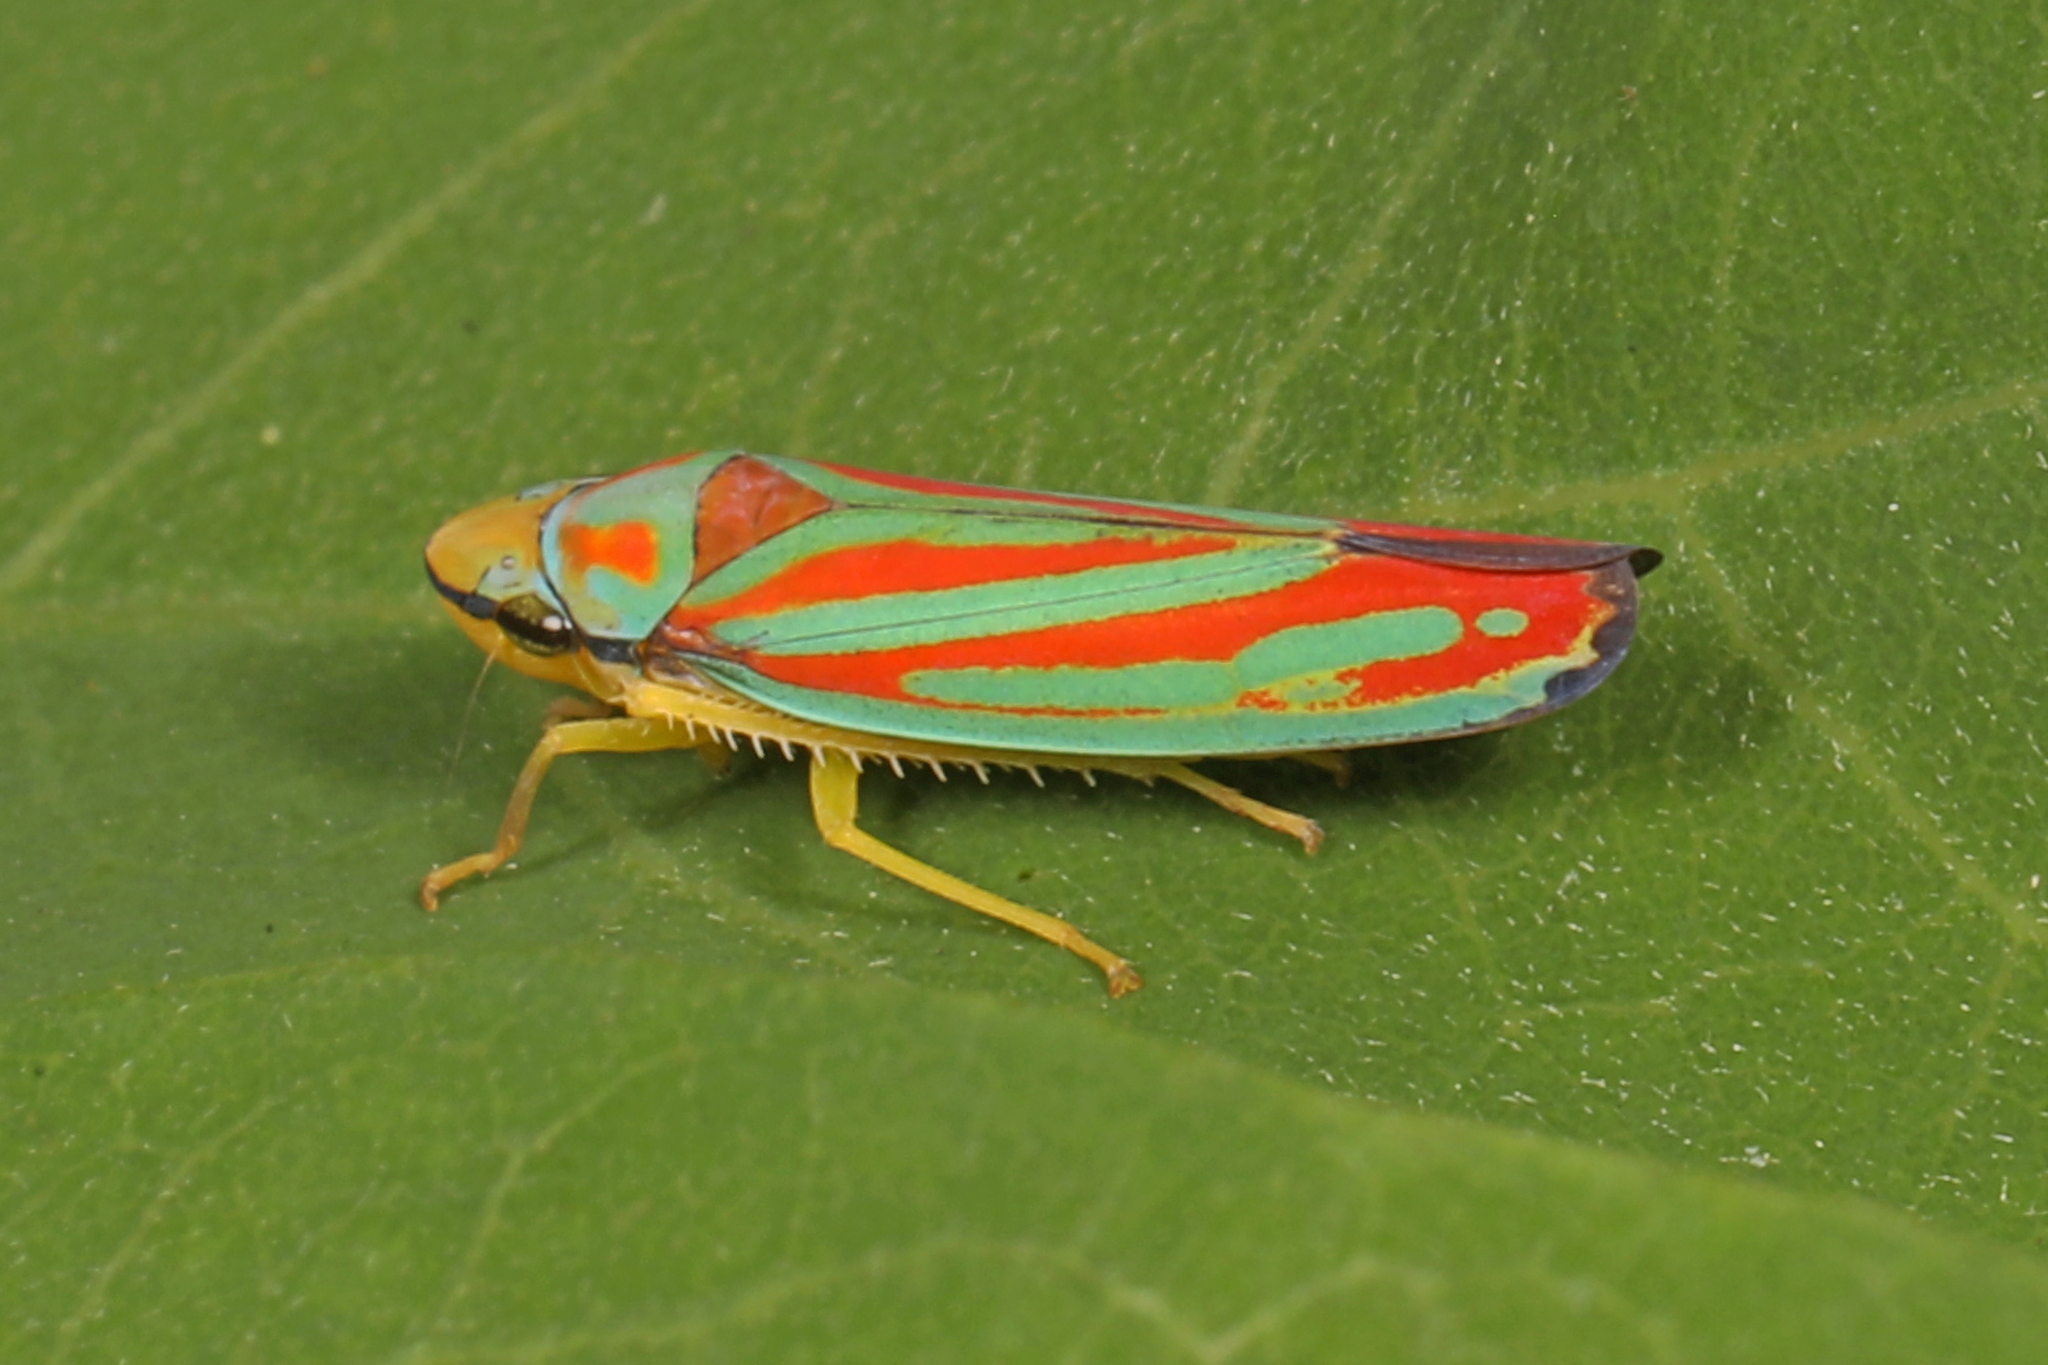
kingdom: Animalia
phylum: Arthropoda
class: Insecta
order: Hemiptera
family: Cicadellidae
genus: Graphocephala
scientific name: Graphocephala coccinea
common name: Candy-striped leafhopper
